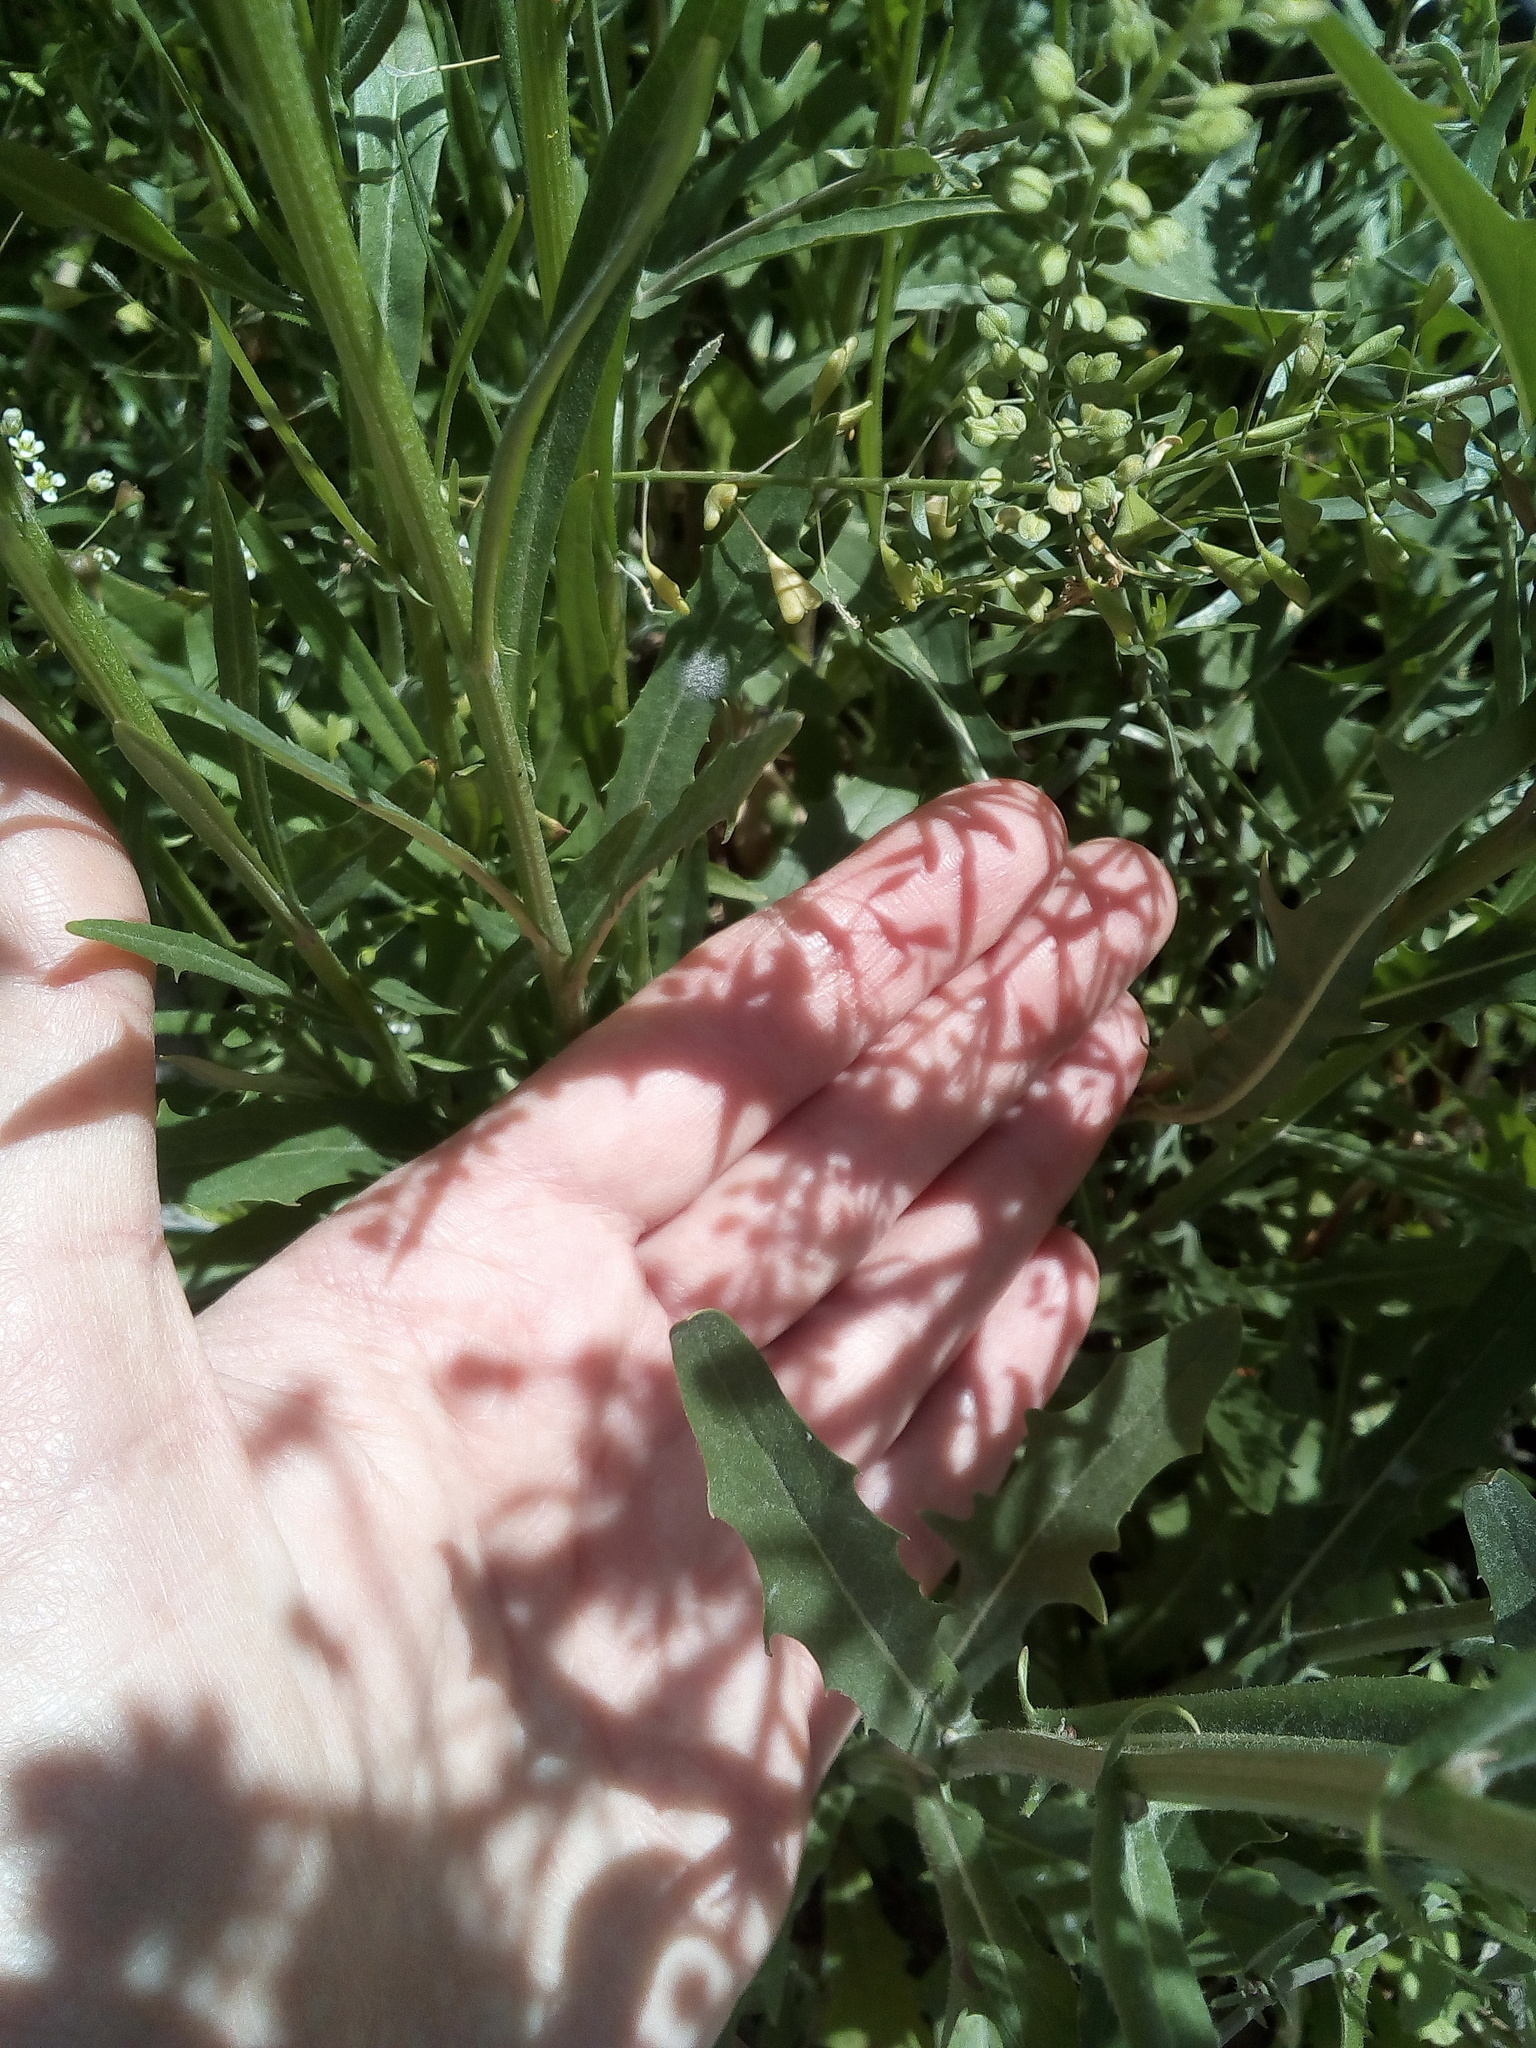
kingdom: Plantae
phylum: Tracheophyta
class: Magnoliopsida
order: Asterales
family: Asteraceae
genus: Crepis
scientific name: Crepis tectorum
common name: Narrow-leaved hawk's-beard
